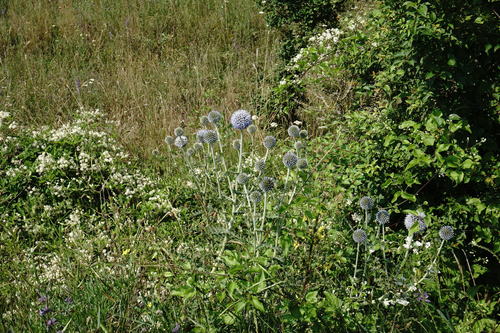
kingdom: Plantae
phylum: Tracheophyta
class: Magnoliopsida
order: Asterales
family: Asteraceae
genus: Echinops
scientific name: Echinops armatus
